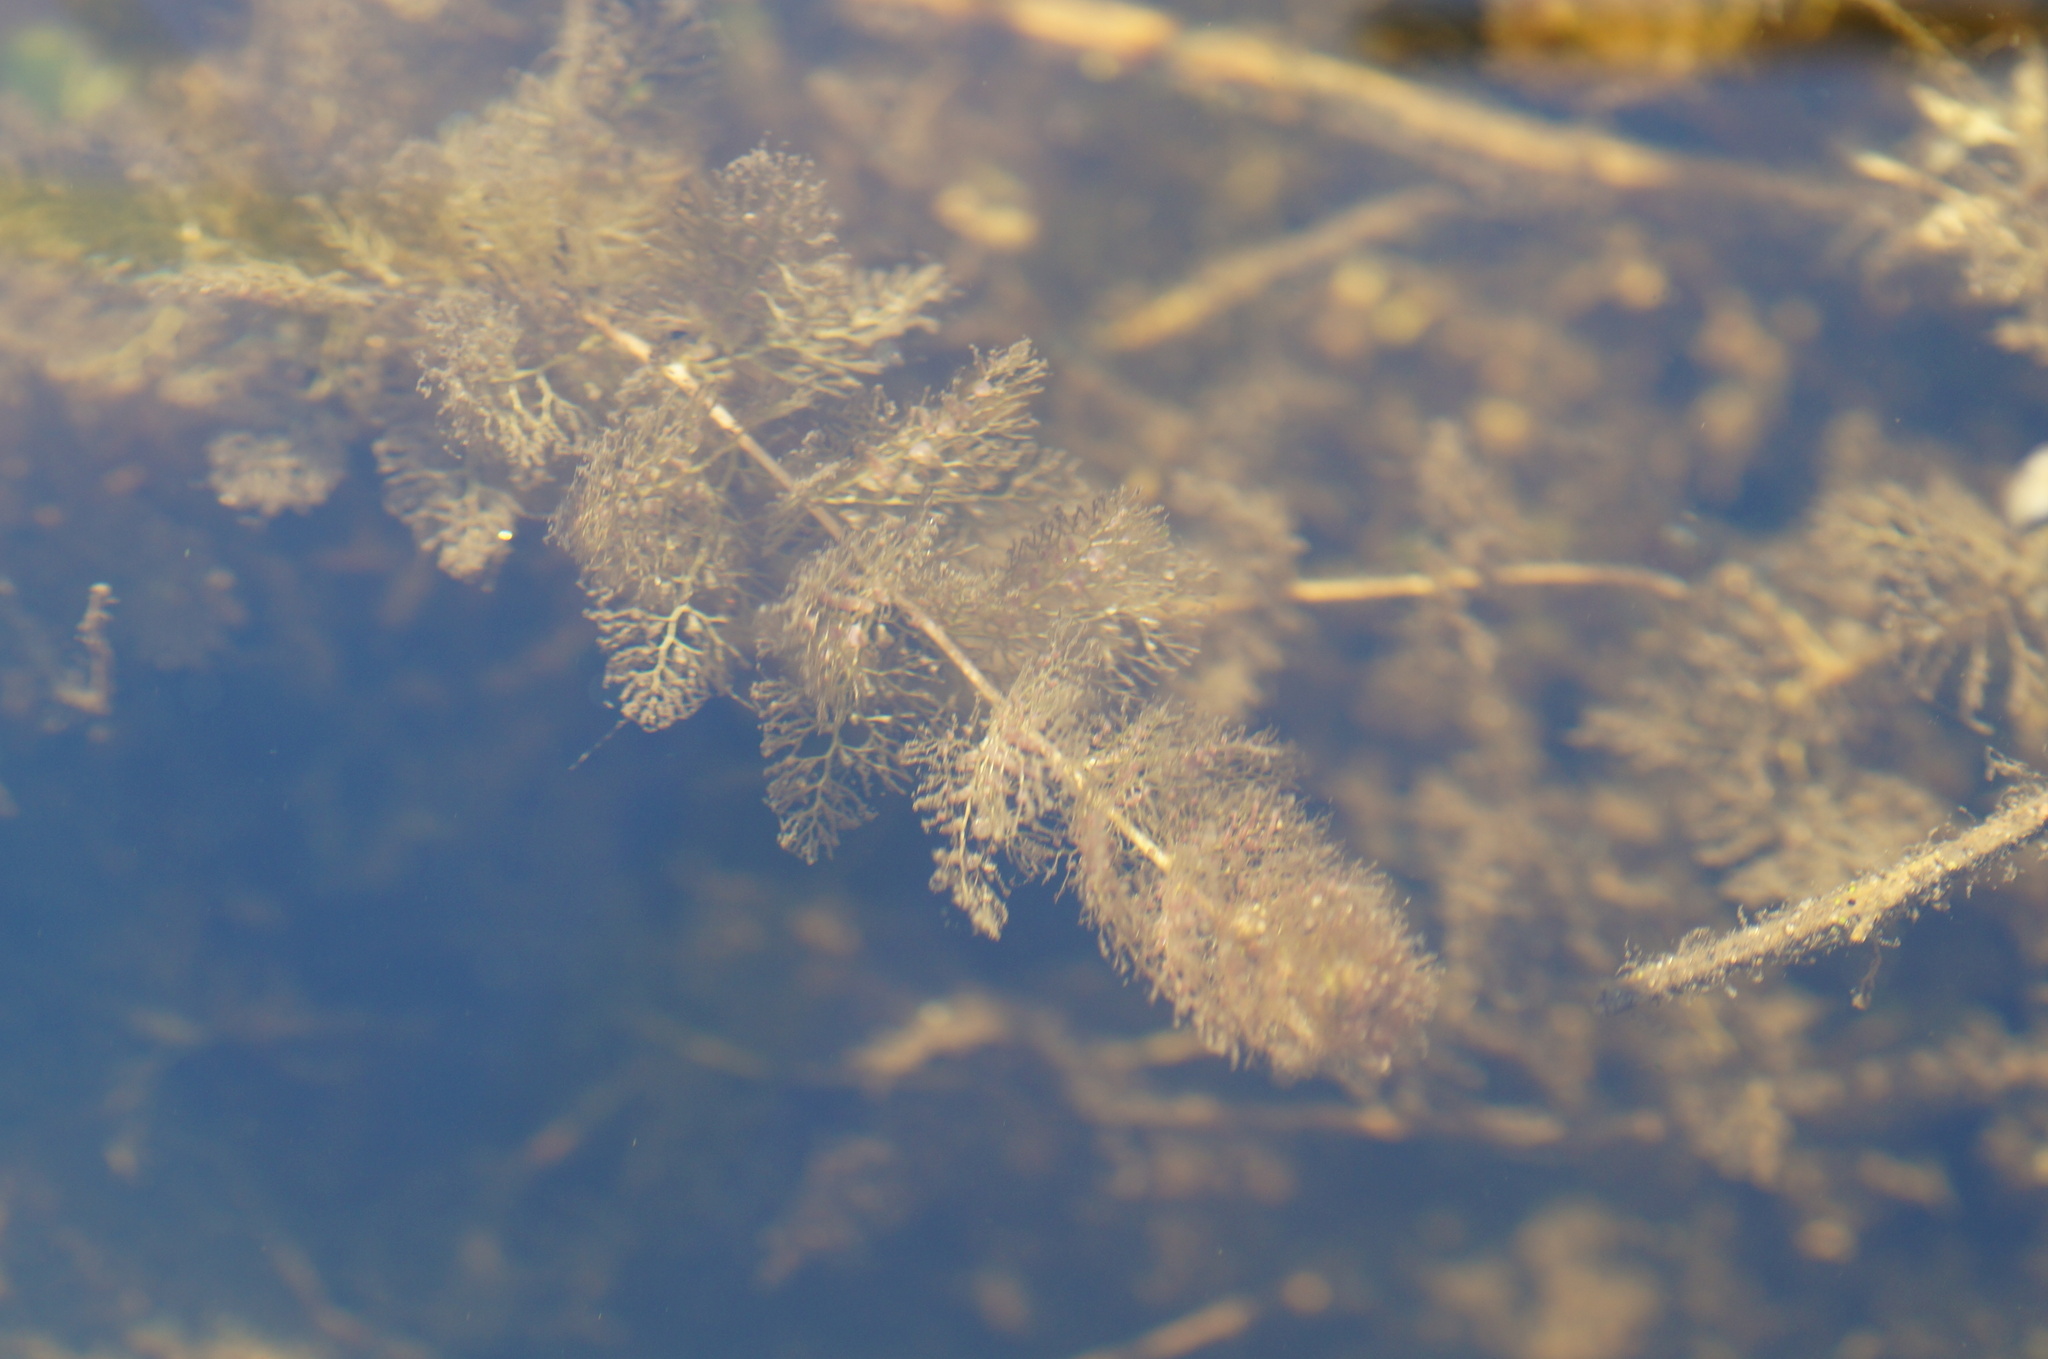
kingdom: Plantae
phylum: Tracheophyta
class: Magnoliopsida
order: Lamiales
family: Lentibulariaceae
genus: Utricularia
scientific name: Utricularia australis
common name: Bladderwort
